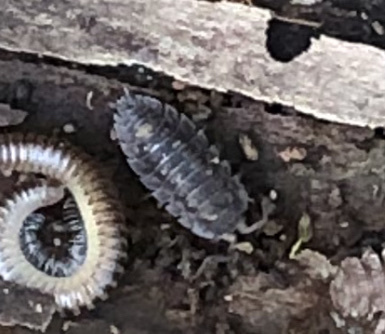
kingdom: Animalia
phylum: Arthropoda
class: Malacostraca
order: Isopoda
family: Oniscidae
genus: Oniscus
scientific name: Oniscus asellus
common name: Common shiny woodlouse
